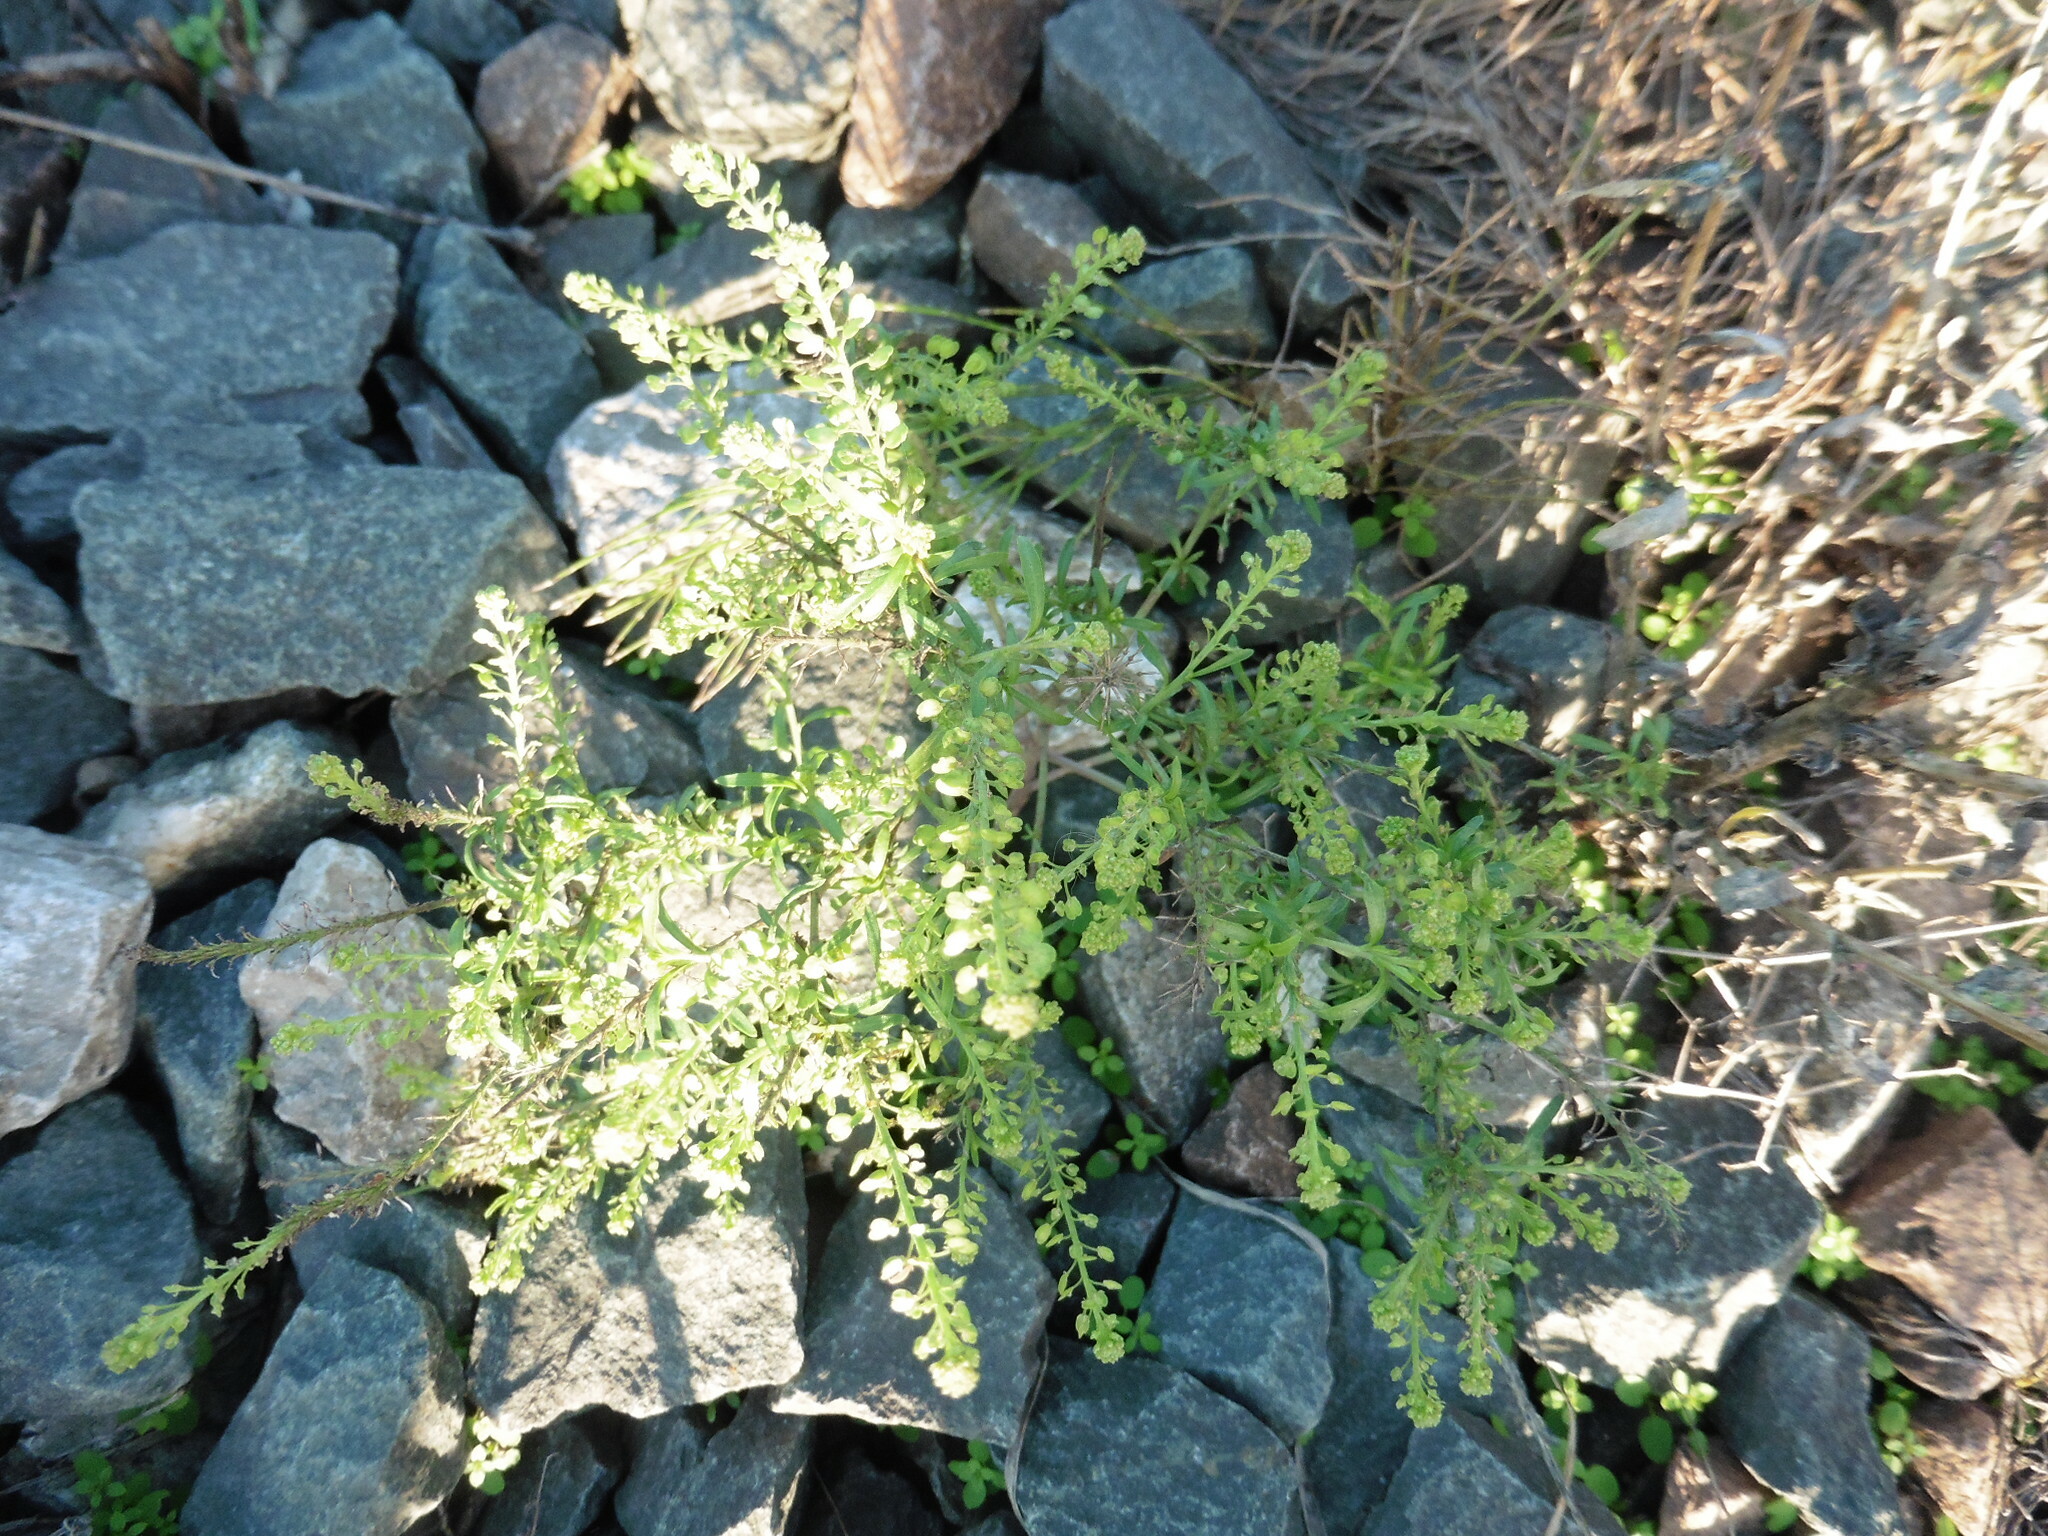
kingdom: Plantae
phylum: Tracheophyta
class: Magnoliopsida
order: Brassicales
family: Brassicaceae
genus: Lepidium
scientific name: Lepidium ruderale
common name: Narrow-leaved pepperwort
